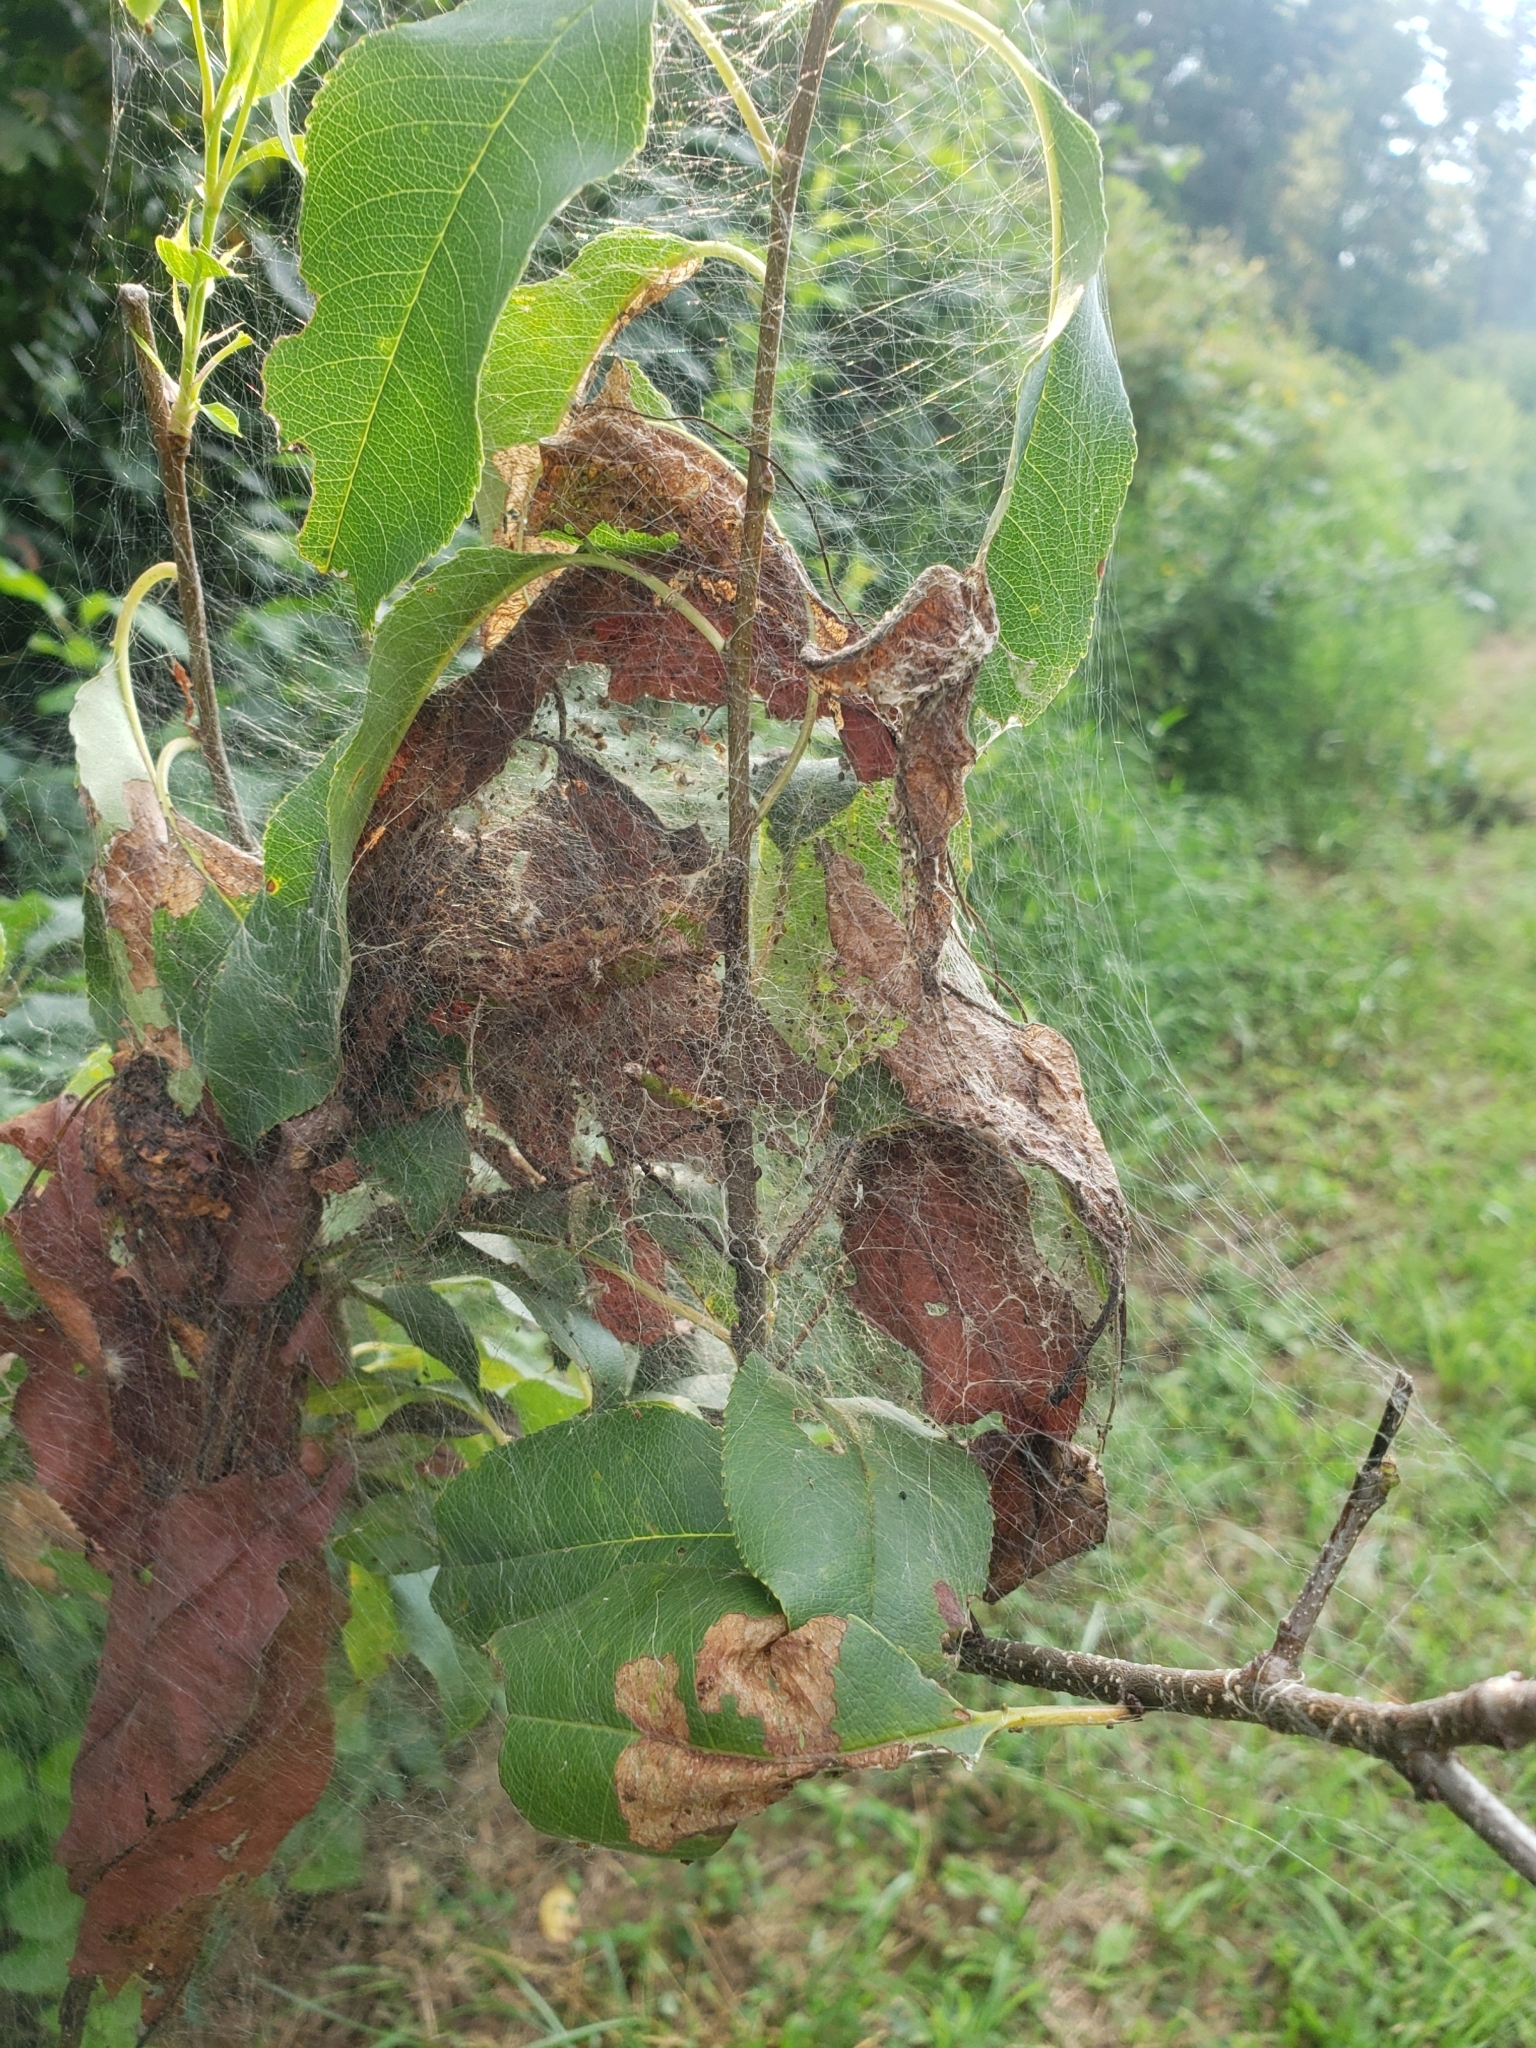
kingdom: Animalia
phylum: Arthropoda
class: Insecta
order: Lepidoptera
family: Erebidae
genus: Hyphantria
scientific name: Hyphantria cunea
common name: American white moth
